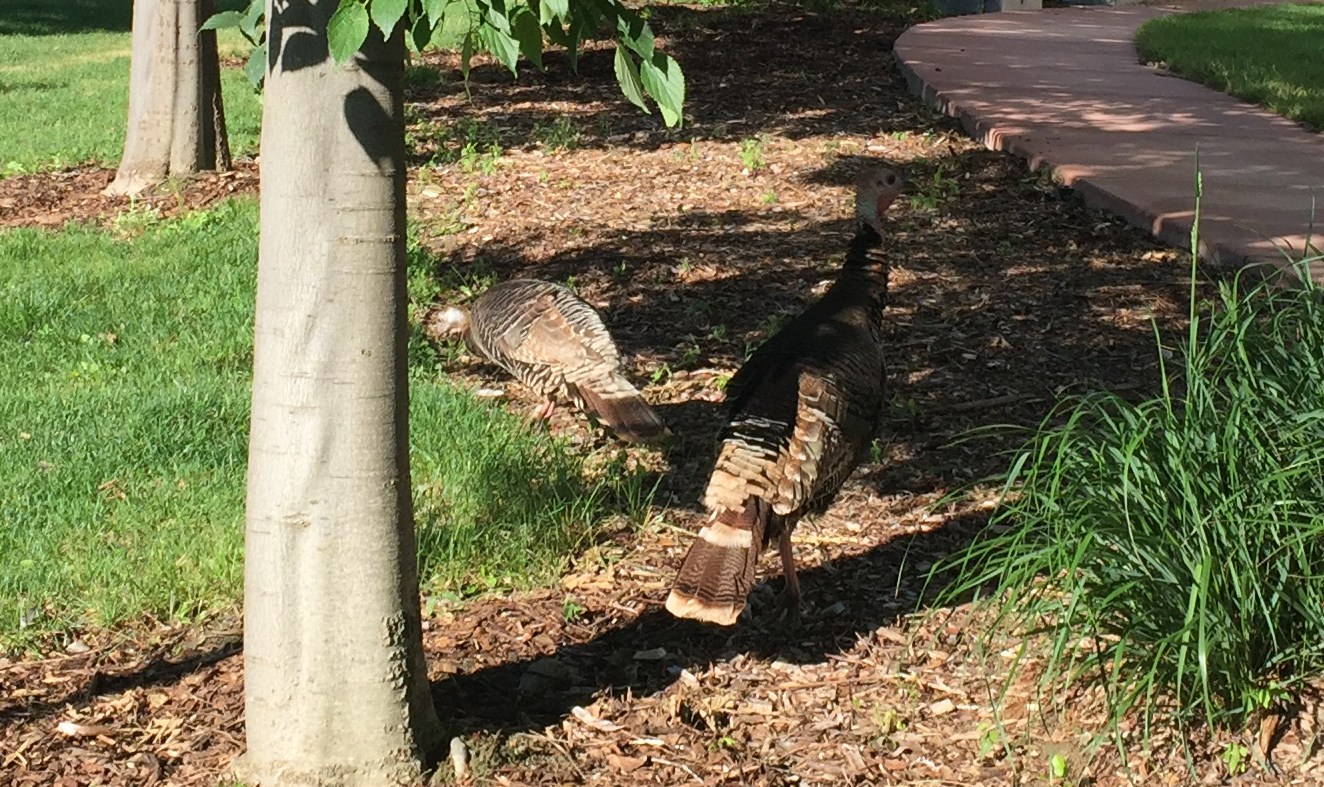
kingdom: Animalia
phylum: Chordata
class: Aves
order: Galliformes
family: Phasianidae
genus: Meleagris
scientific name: Meleagris gallopavo
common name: Wild turkey
